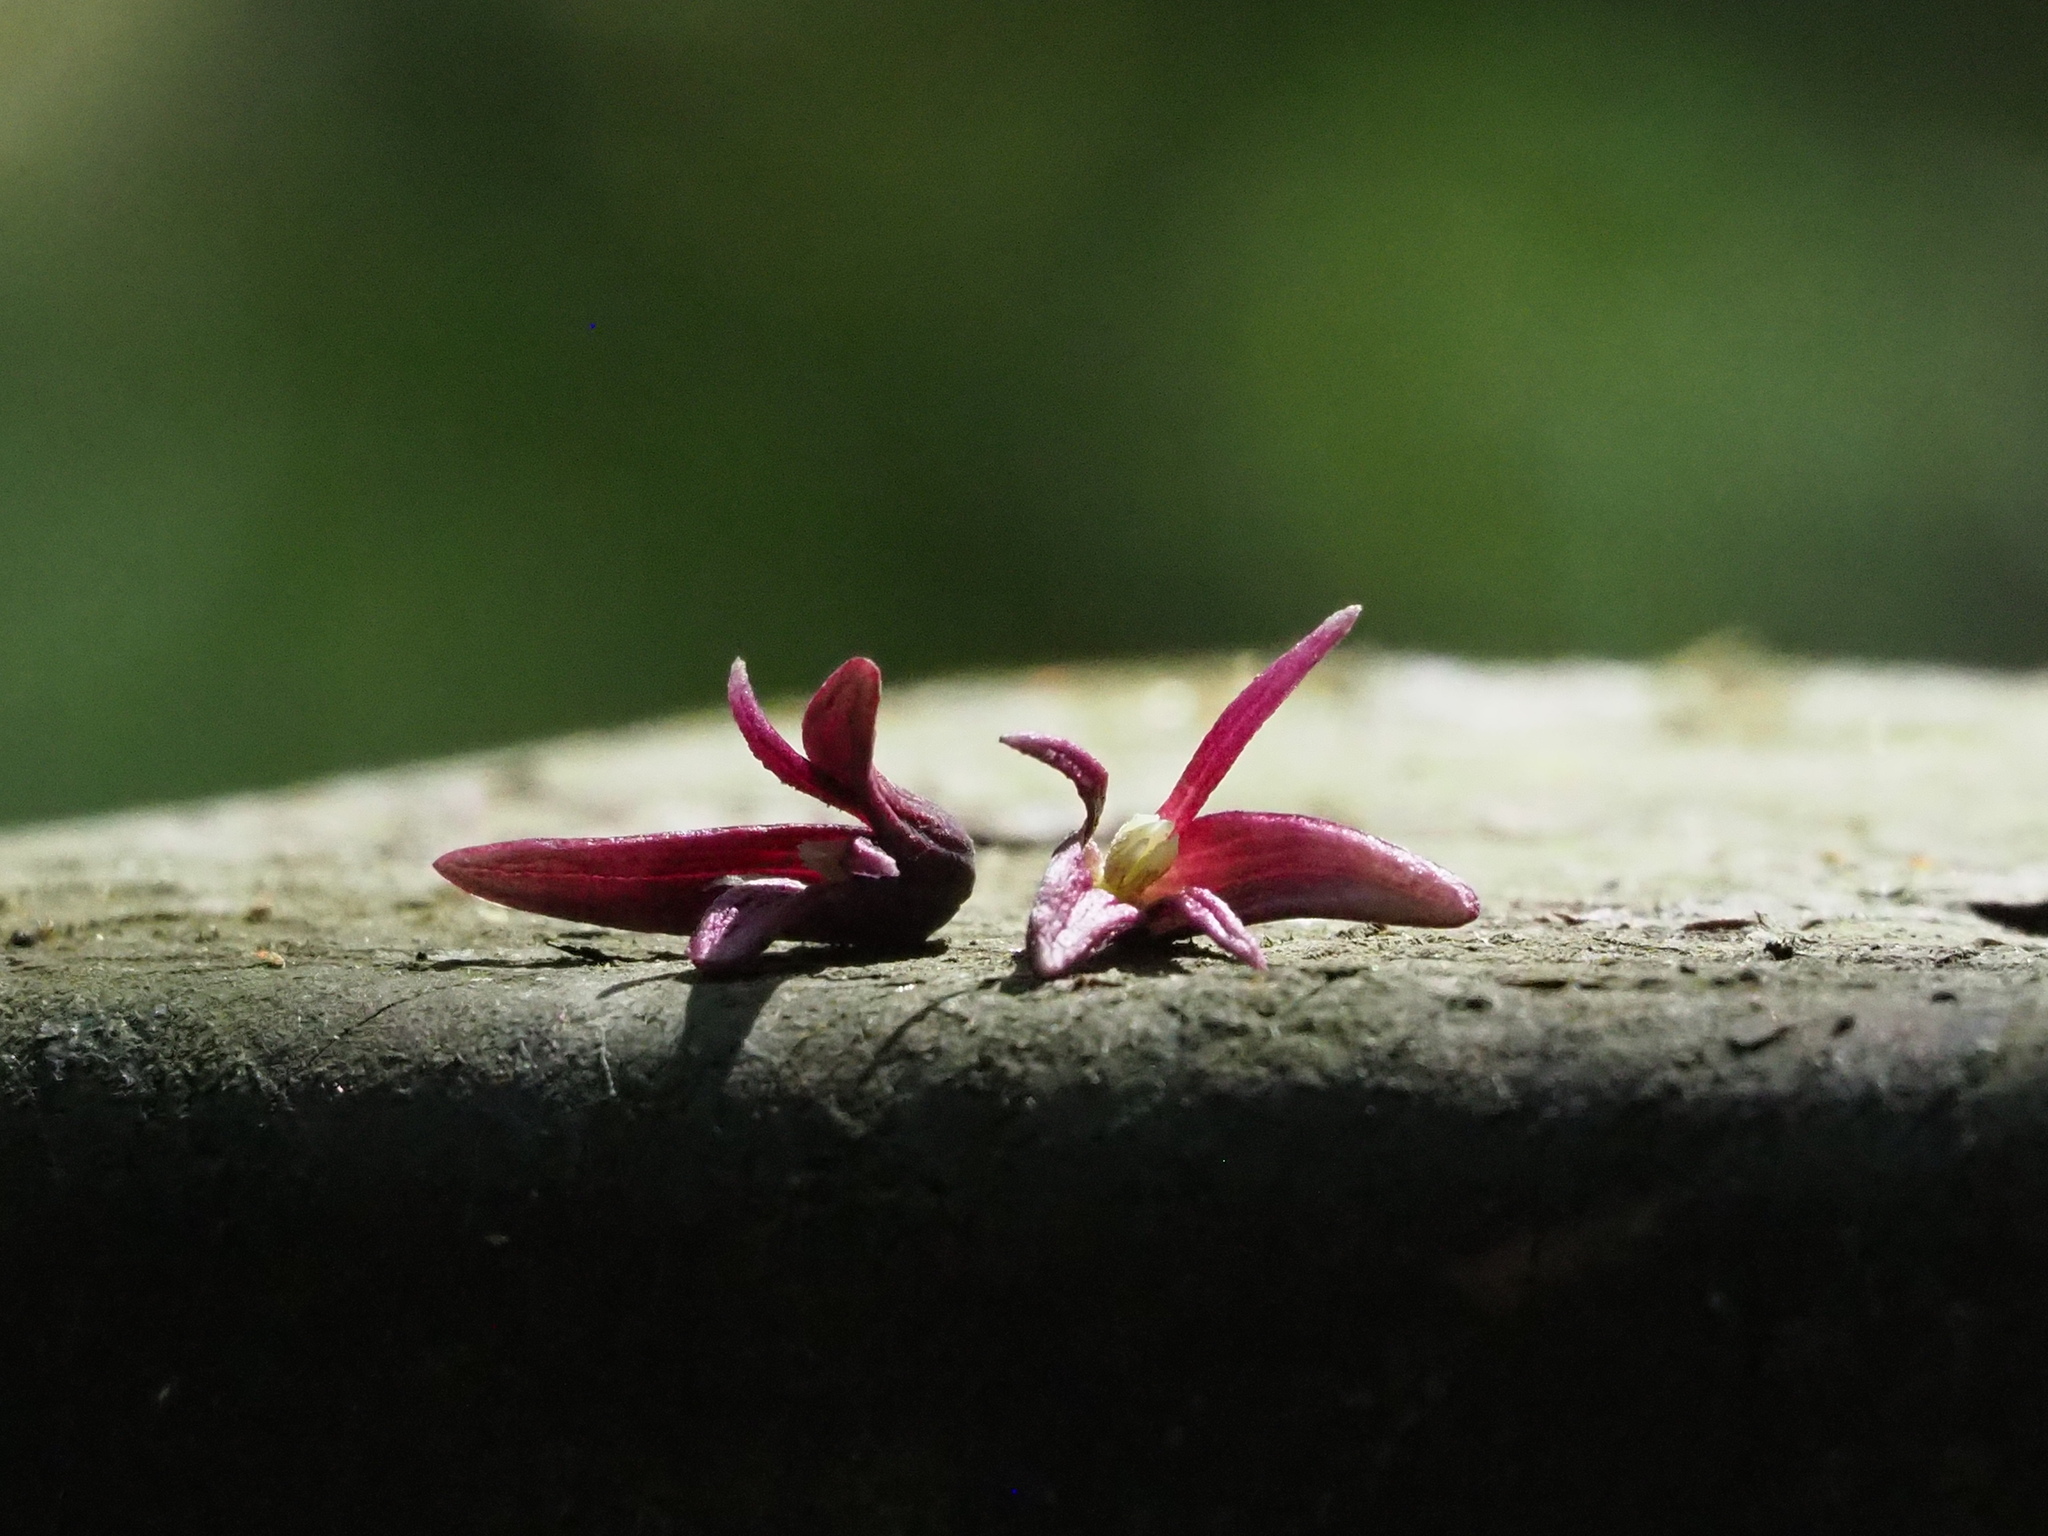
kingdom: Plantae
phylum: Tracheophyta
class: Magnoliopsida
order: Ranunculales
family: Lardizabalaceae
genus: Stauntonia
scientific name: Stauntonia purpurea
